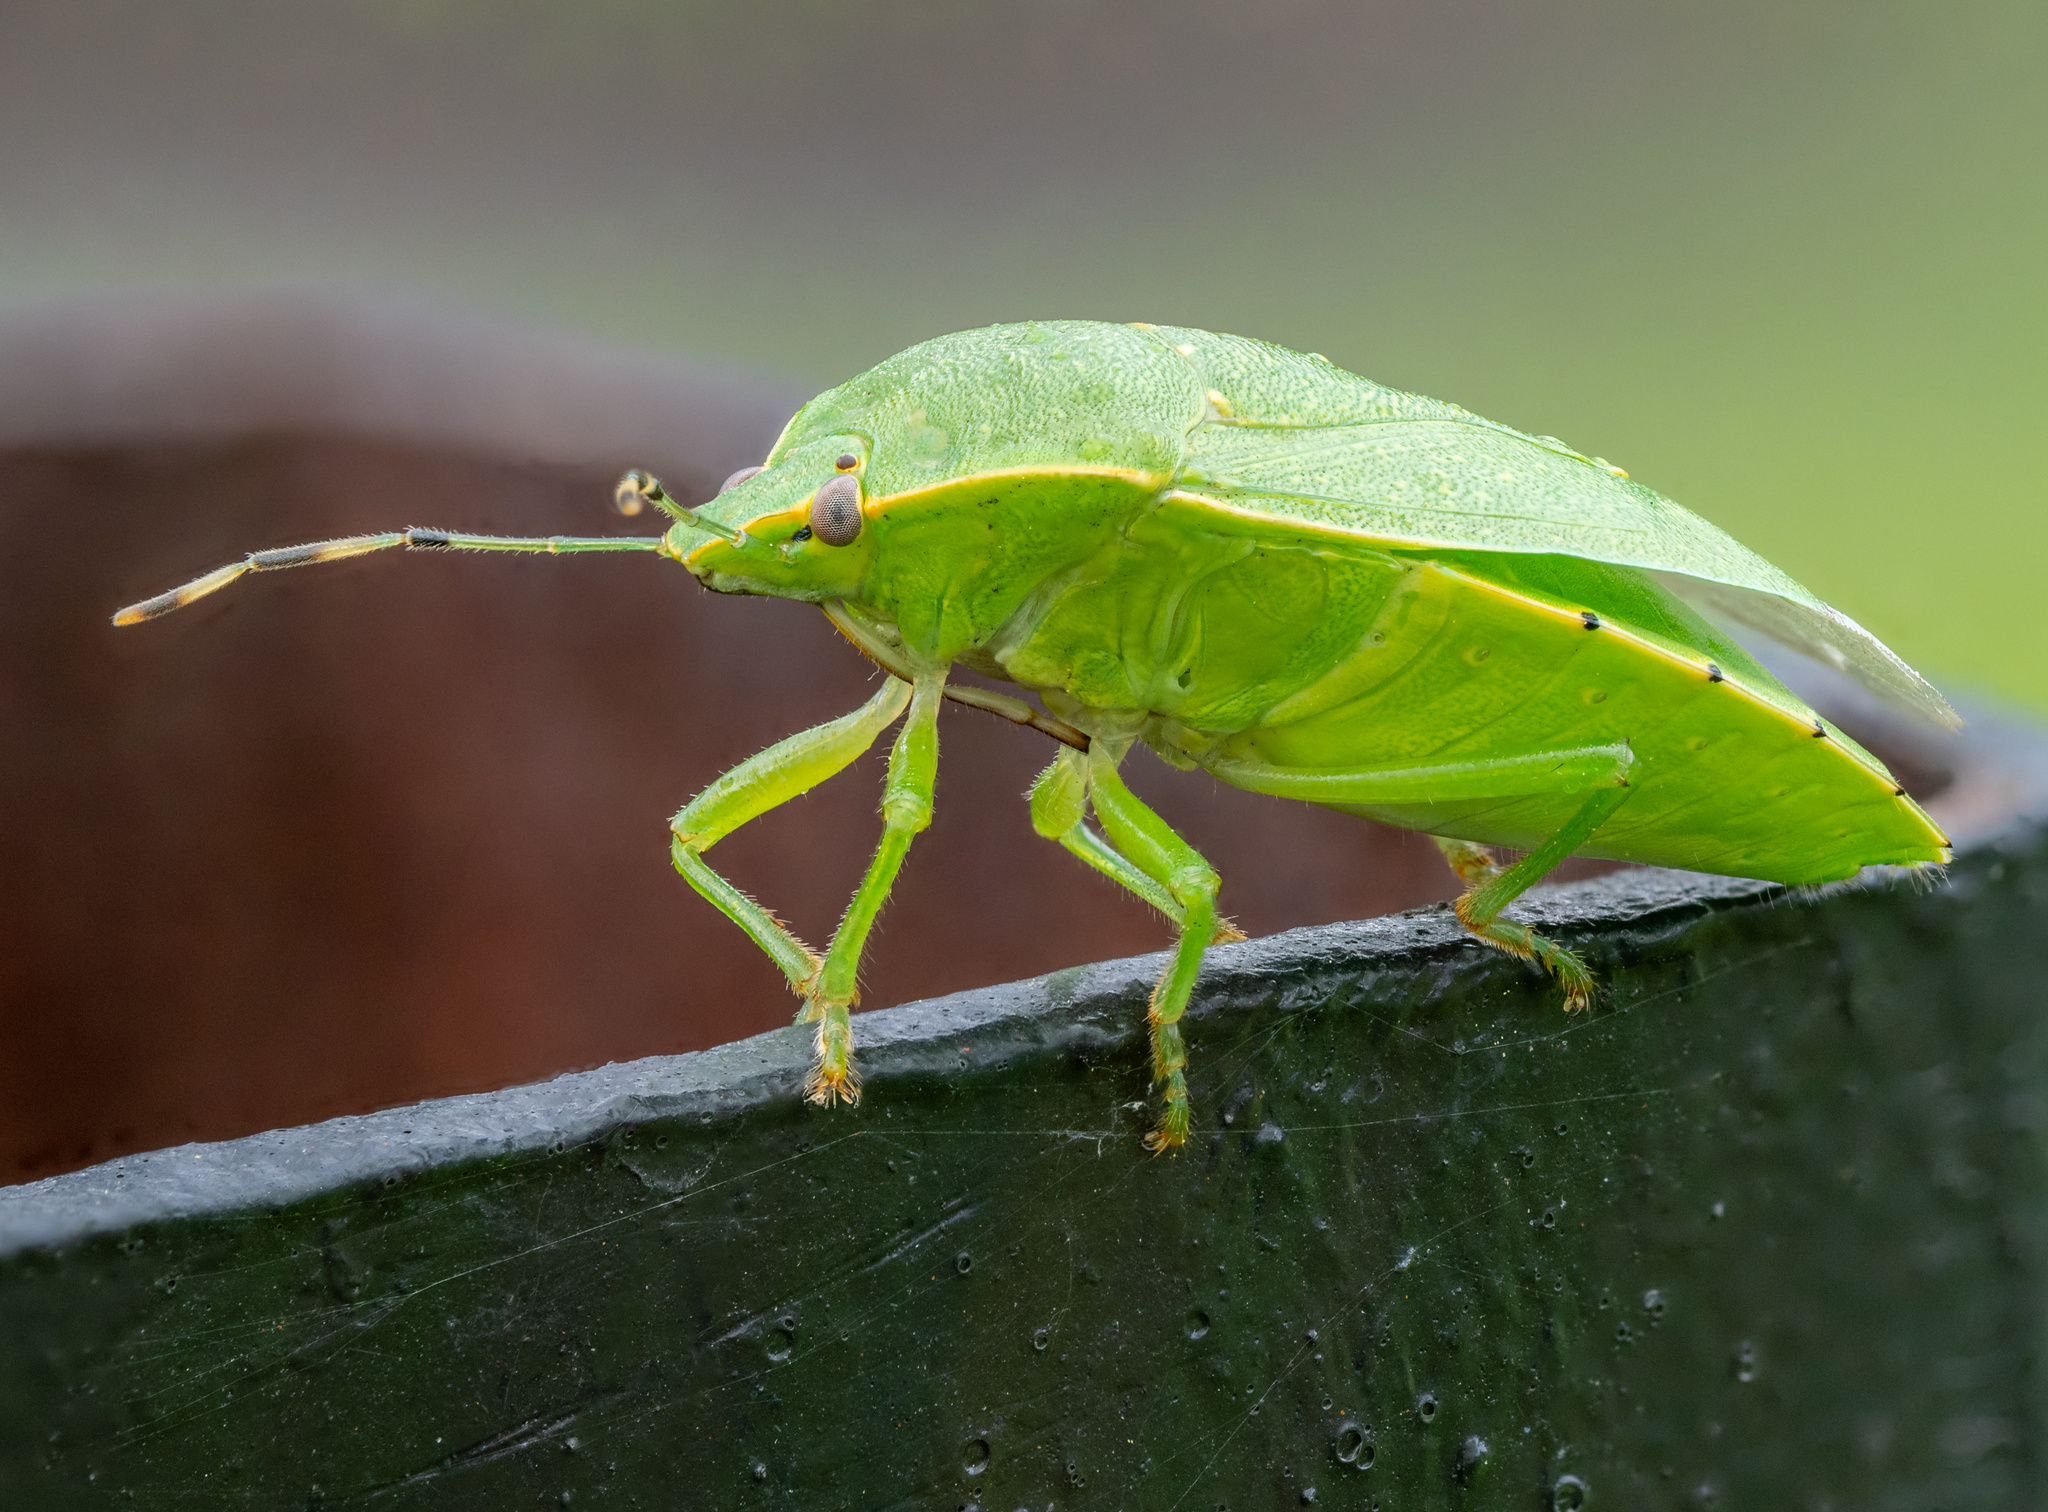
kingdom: Animalia
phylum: Arthropoda
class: Insecta
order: Hemiptera
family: Pentatomidae
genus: Chinavia
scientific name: Chinavia hilaris
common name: Green stink bug
